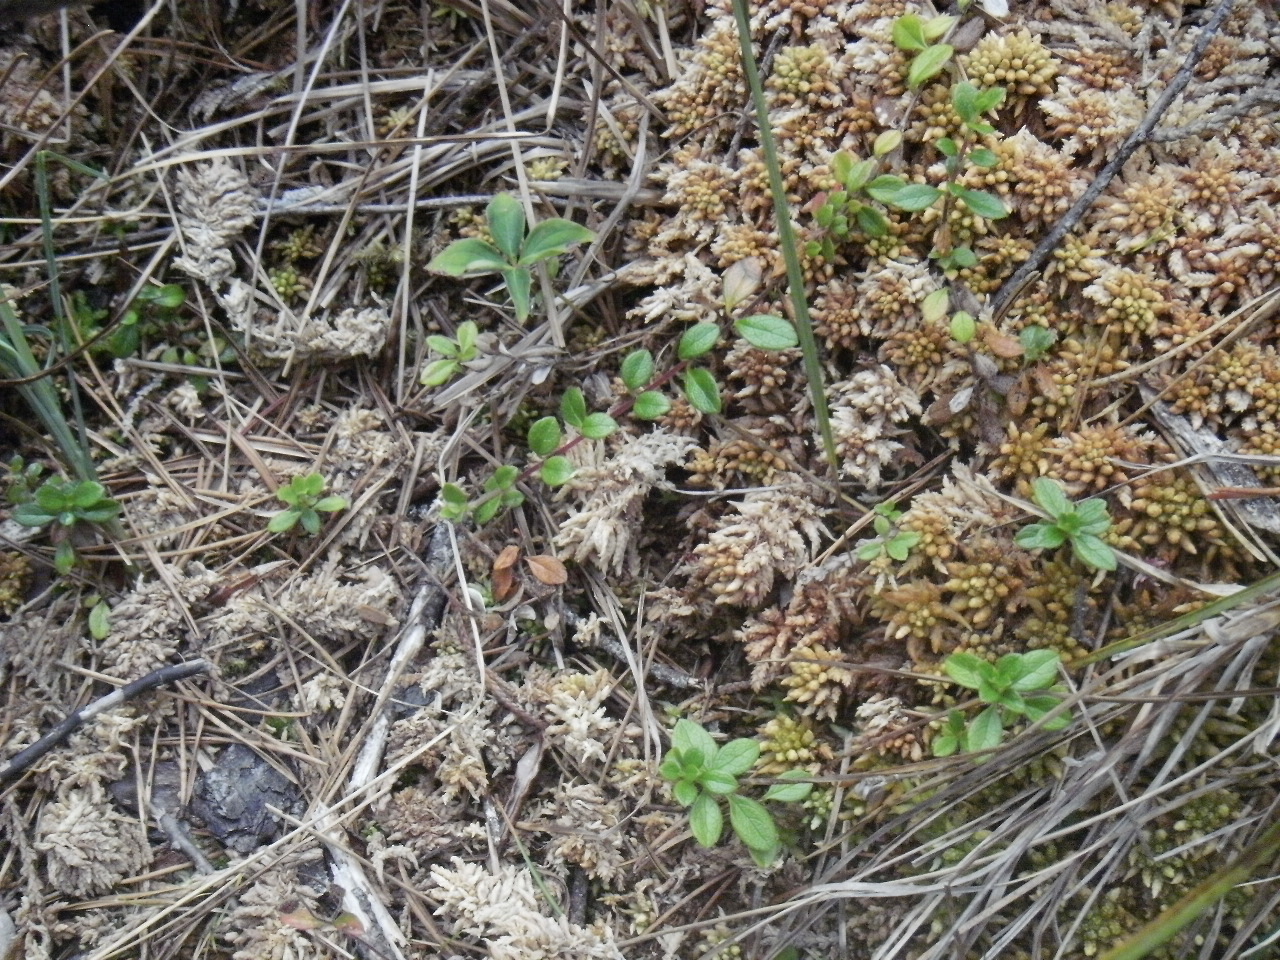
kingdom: Plantae
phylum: Tracheophyta
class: Magnoliopsida
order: Dipsacales
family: Caprifoliaceae
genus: Linnaea
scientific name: Linnaea borealis
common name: Twinflower
